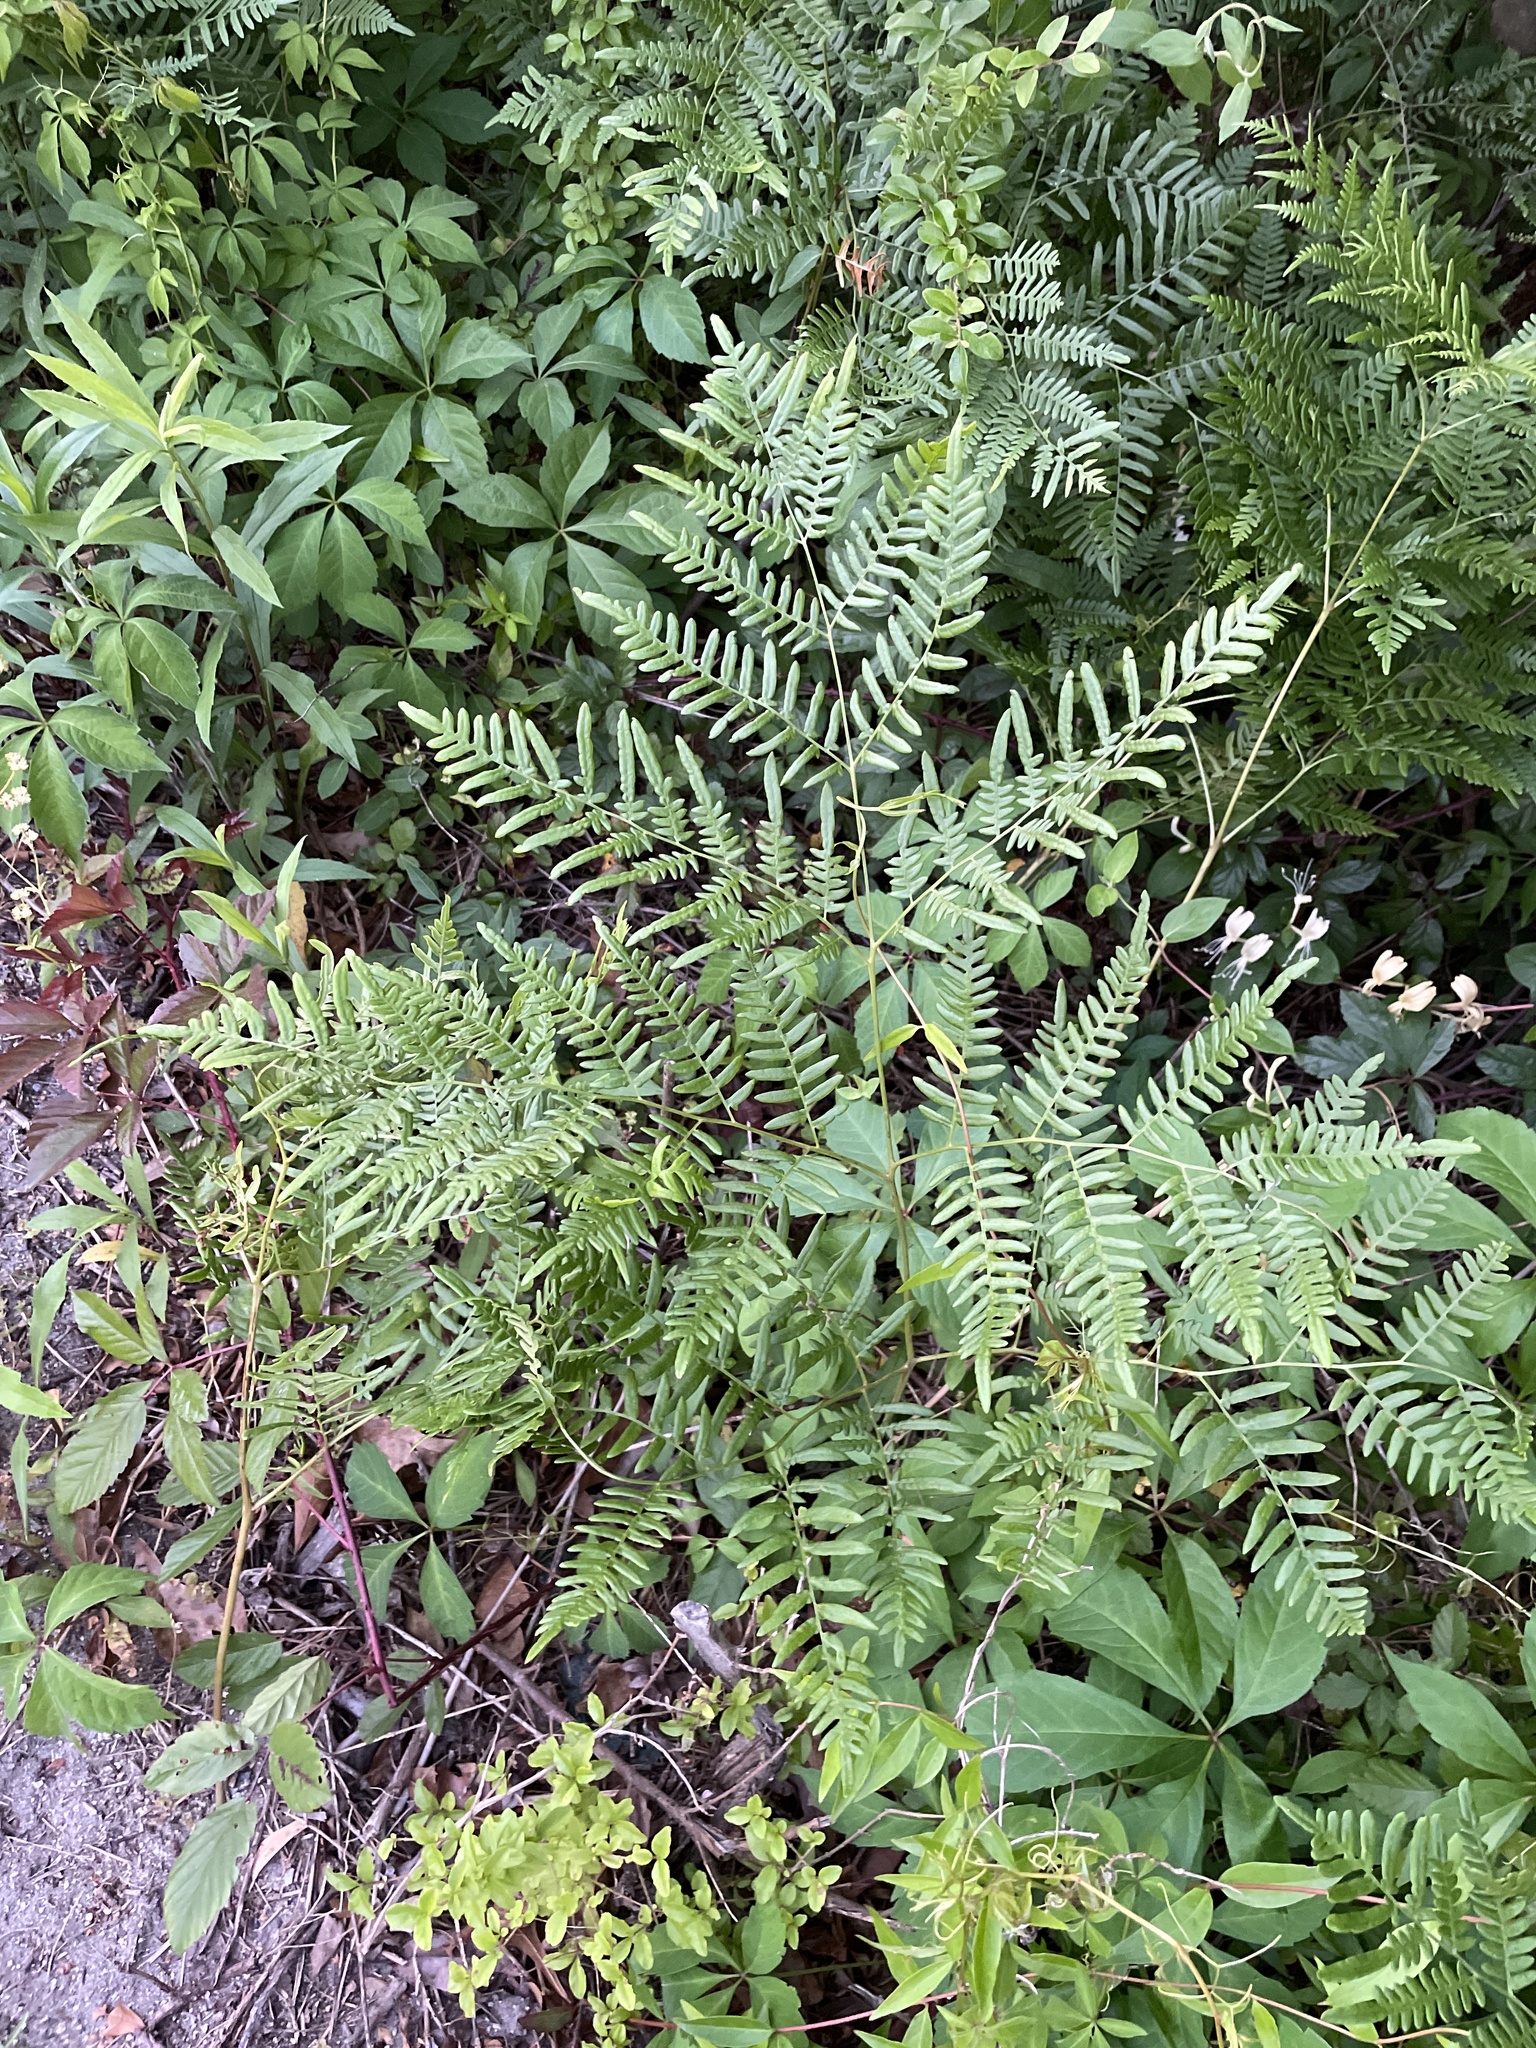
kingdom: Plantae
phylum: Tracheophyta
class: Polypodiopsida
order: Polypodiales
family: Dennstaedtiaceae
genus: Pteridium
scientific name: Pteridium
